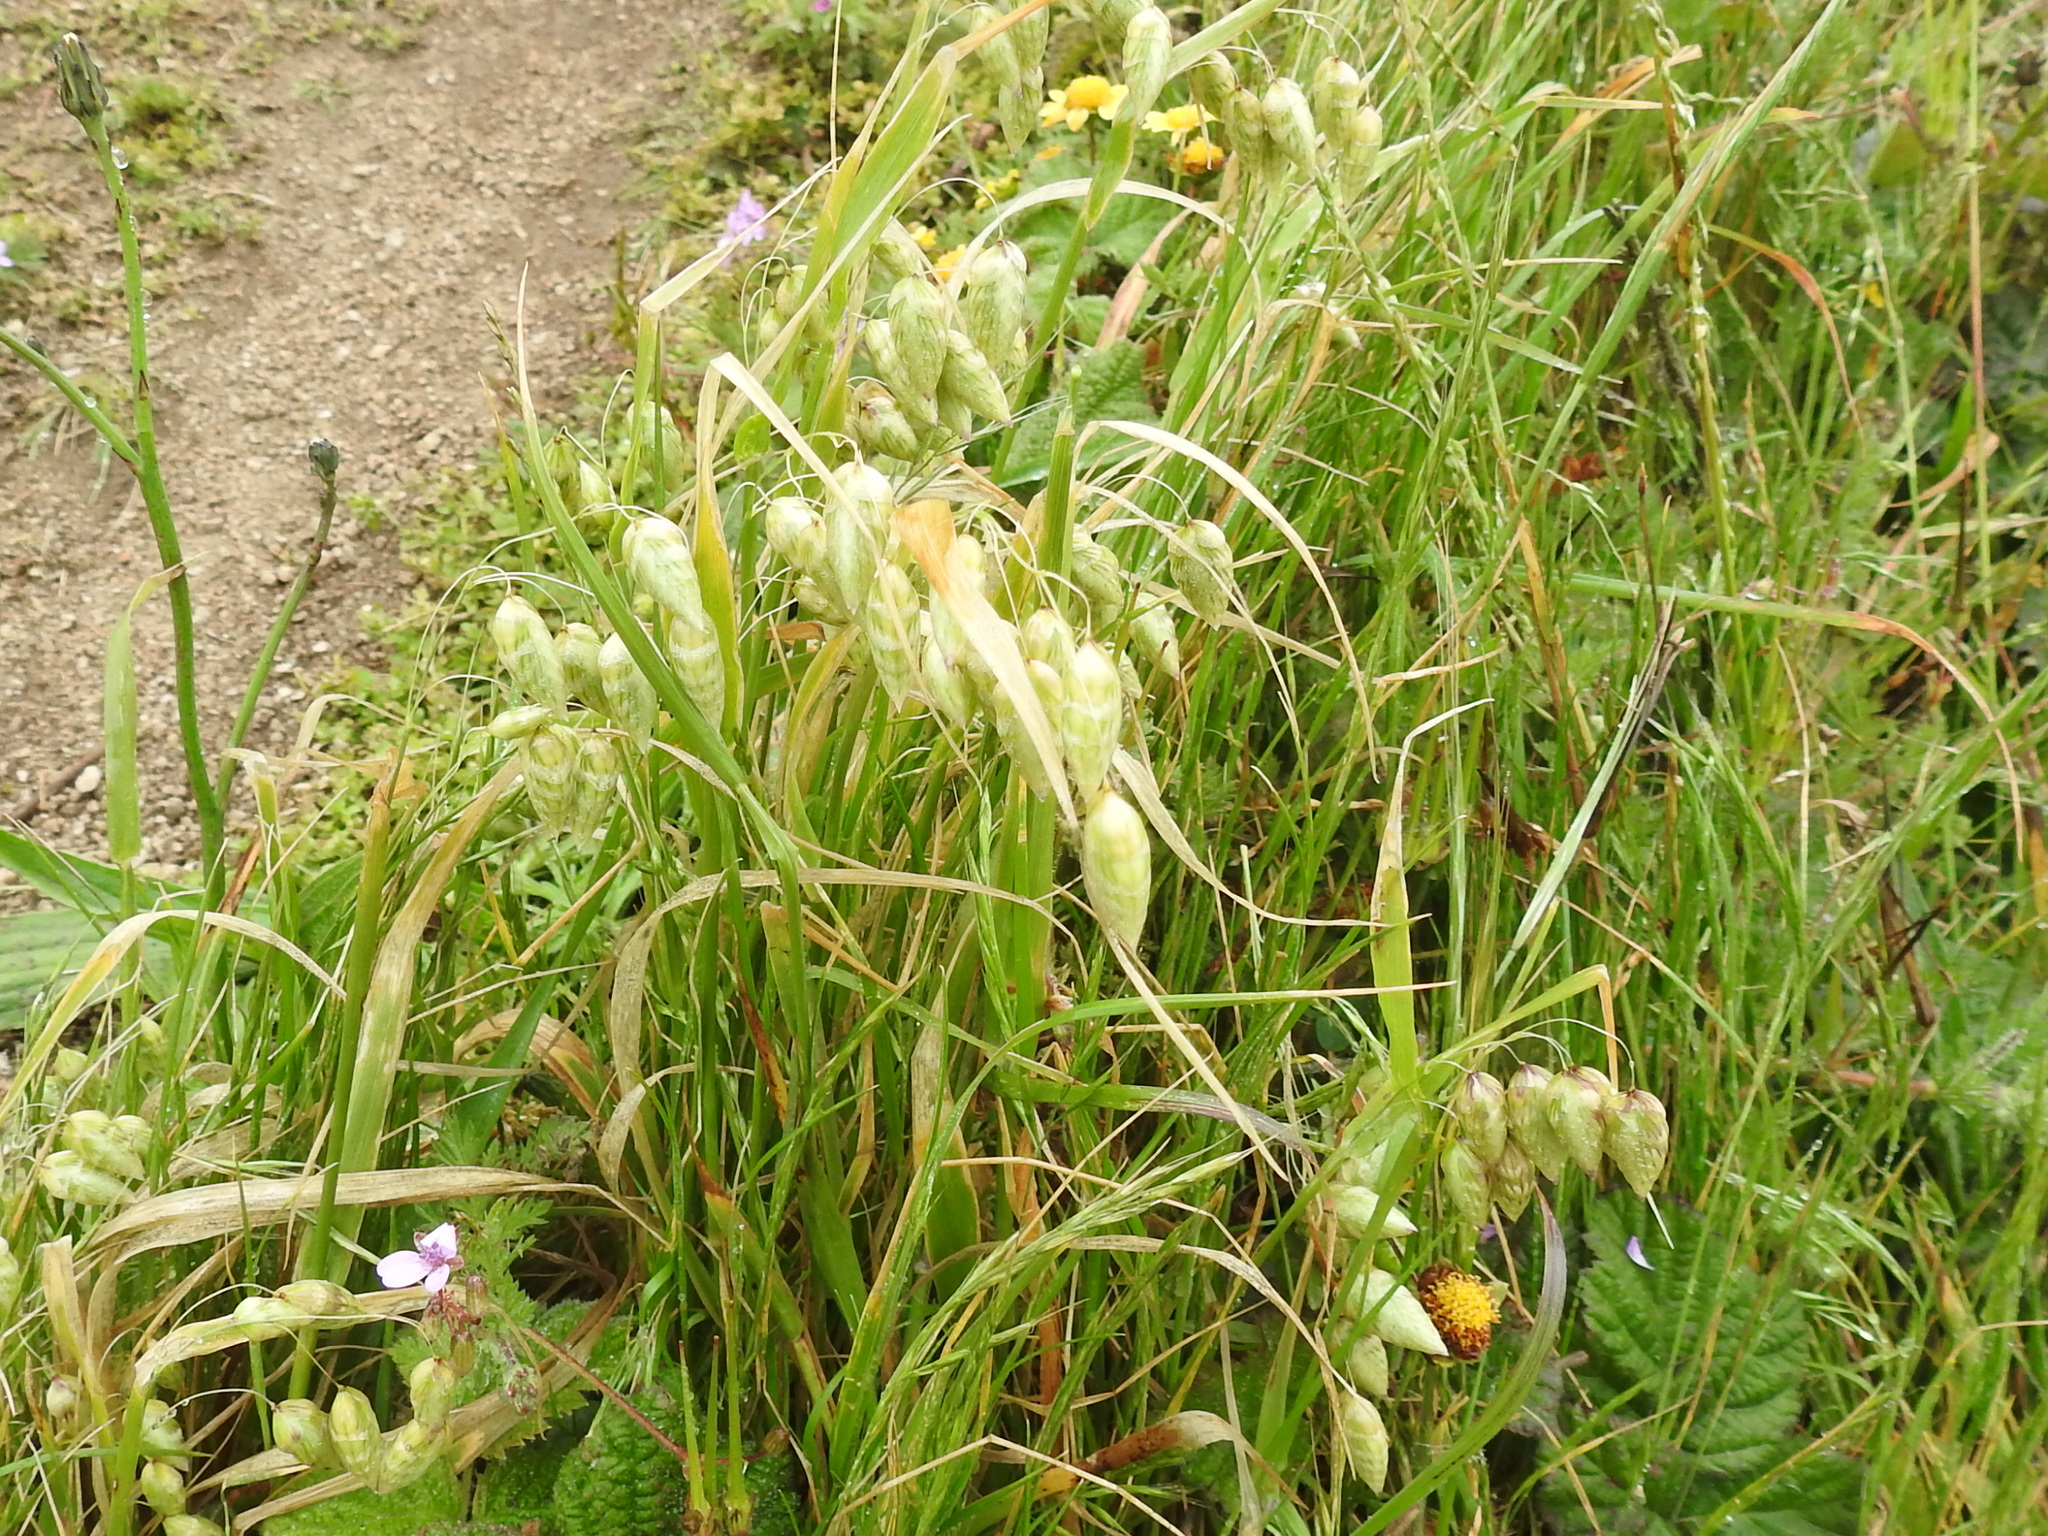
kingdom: Plantae
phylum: Tracheophyta
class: Liliopsida
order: Poales
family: Poaceae
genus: Briza
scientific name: Briza maxima
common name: Big quakinggrass
